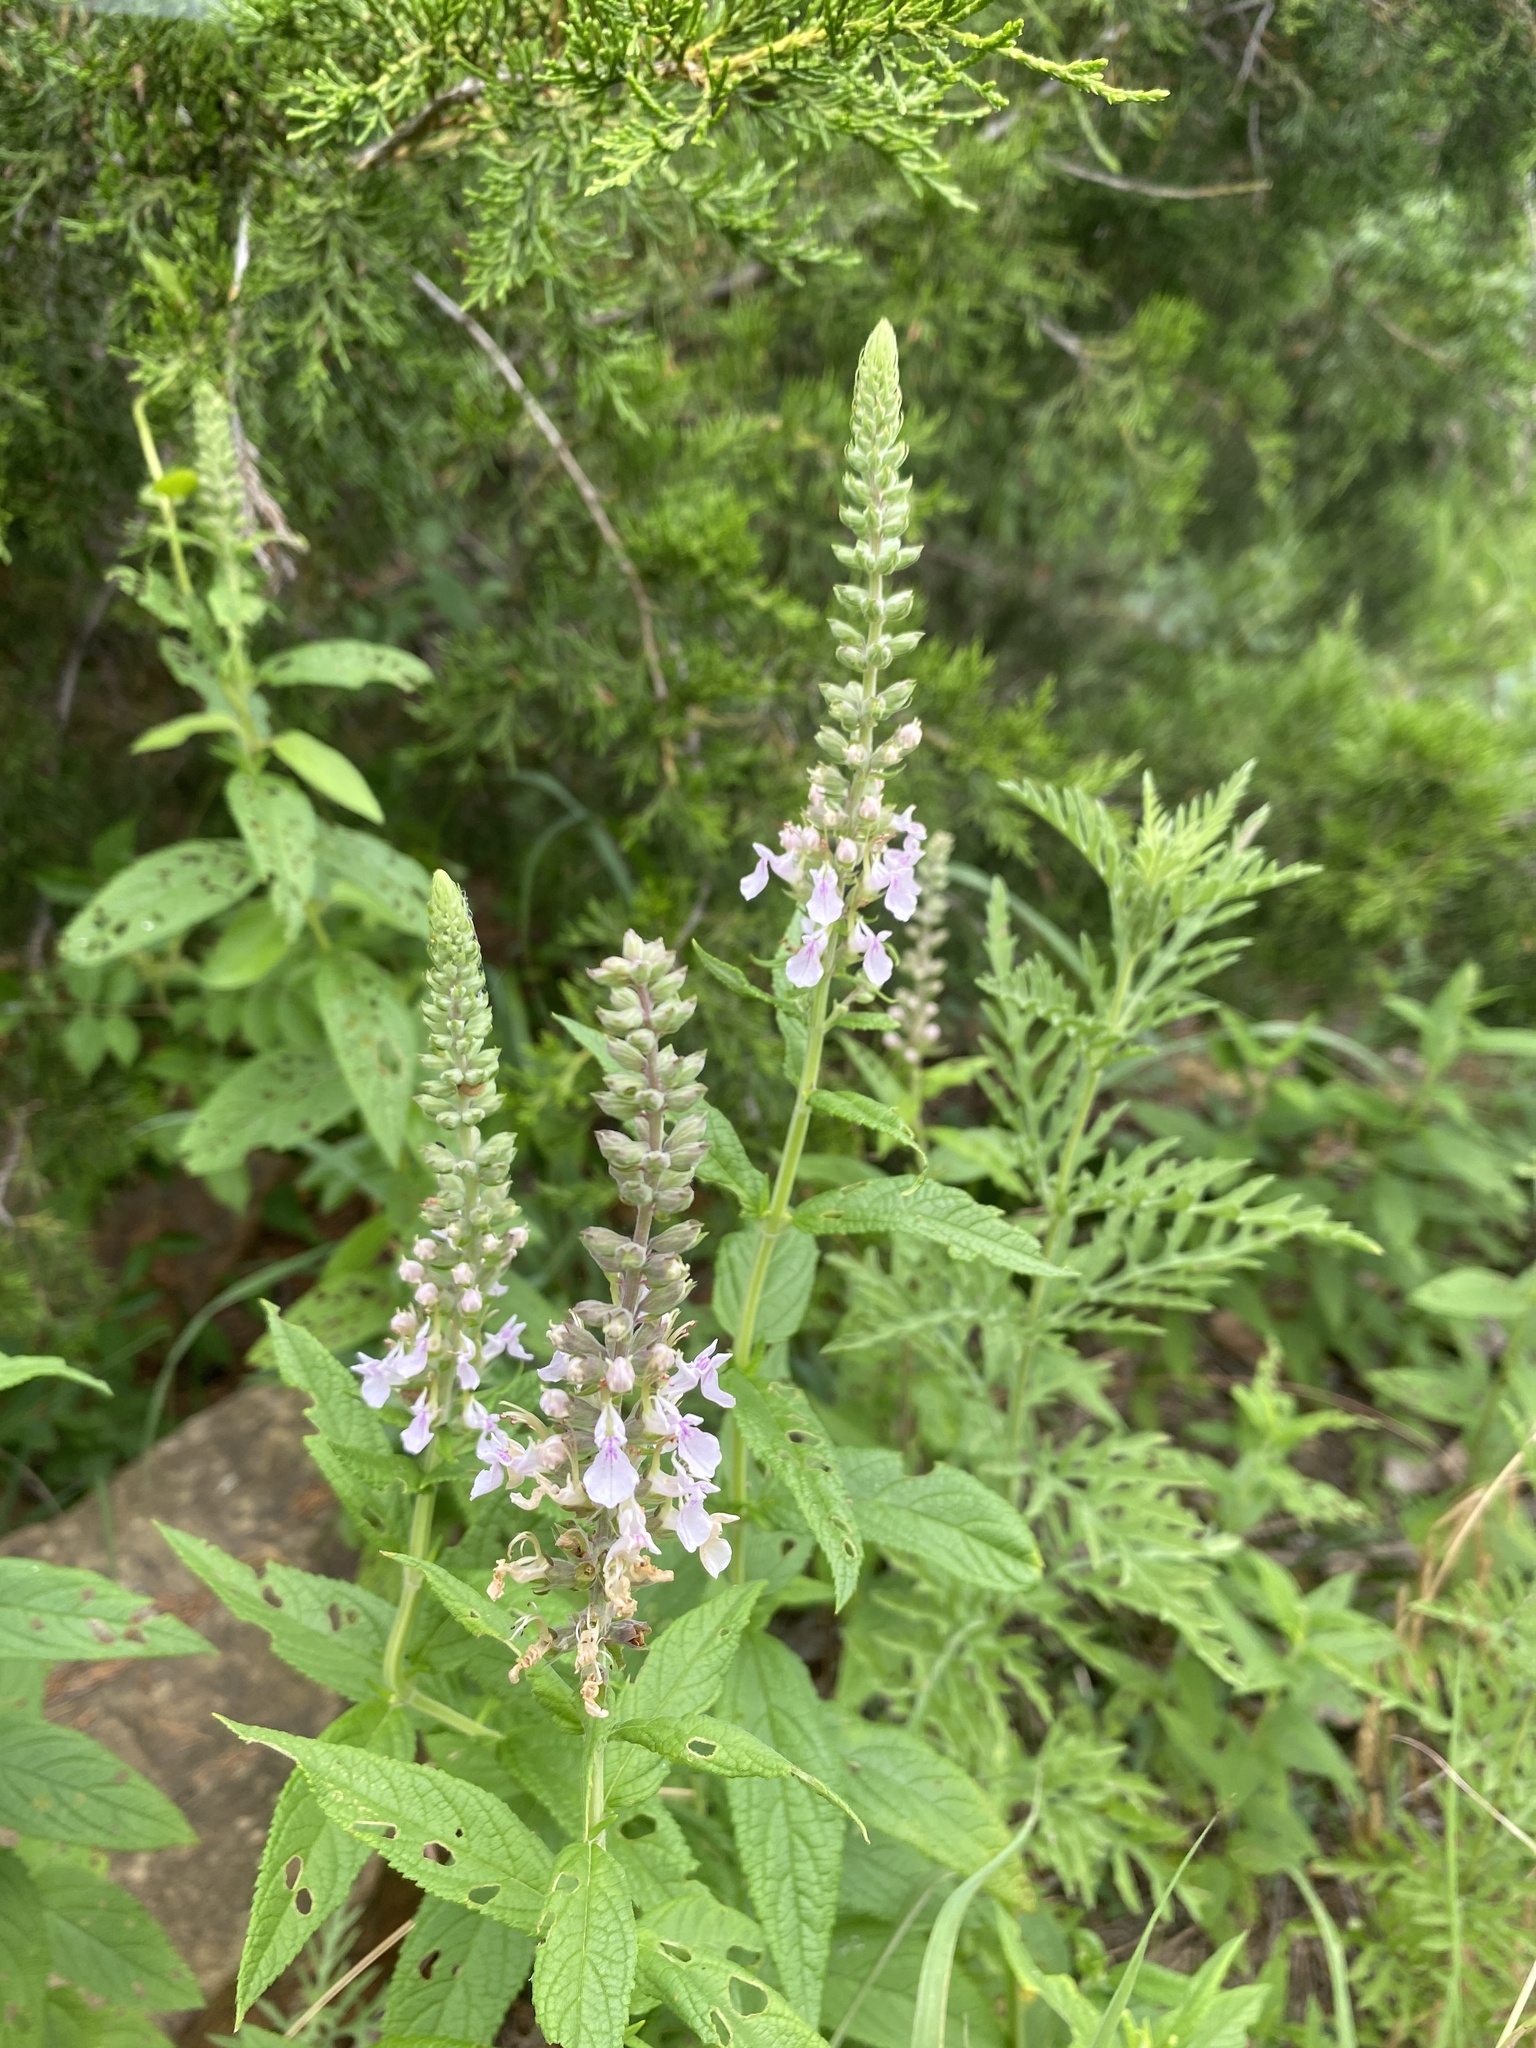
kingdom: Plantae
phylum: Tracheophyta
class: Magnoliopsida
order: Lamiales
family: Lamiaceae
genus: Teucrium
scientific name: Teucrium canadense
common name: American germander
